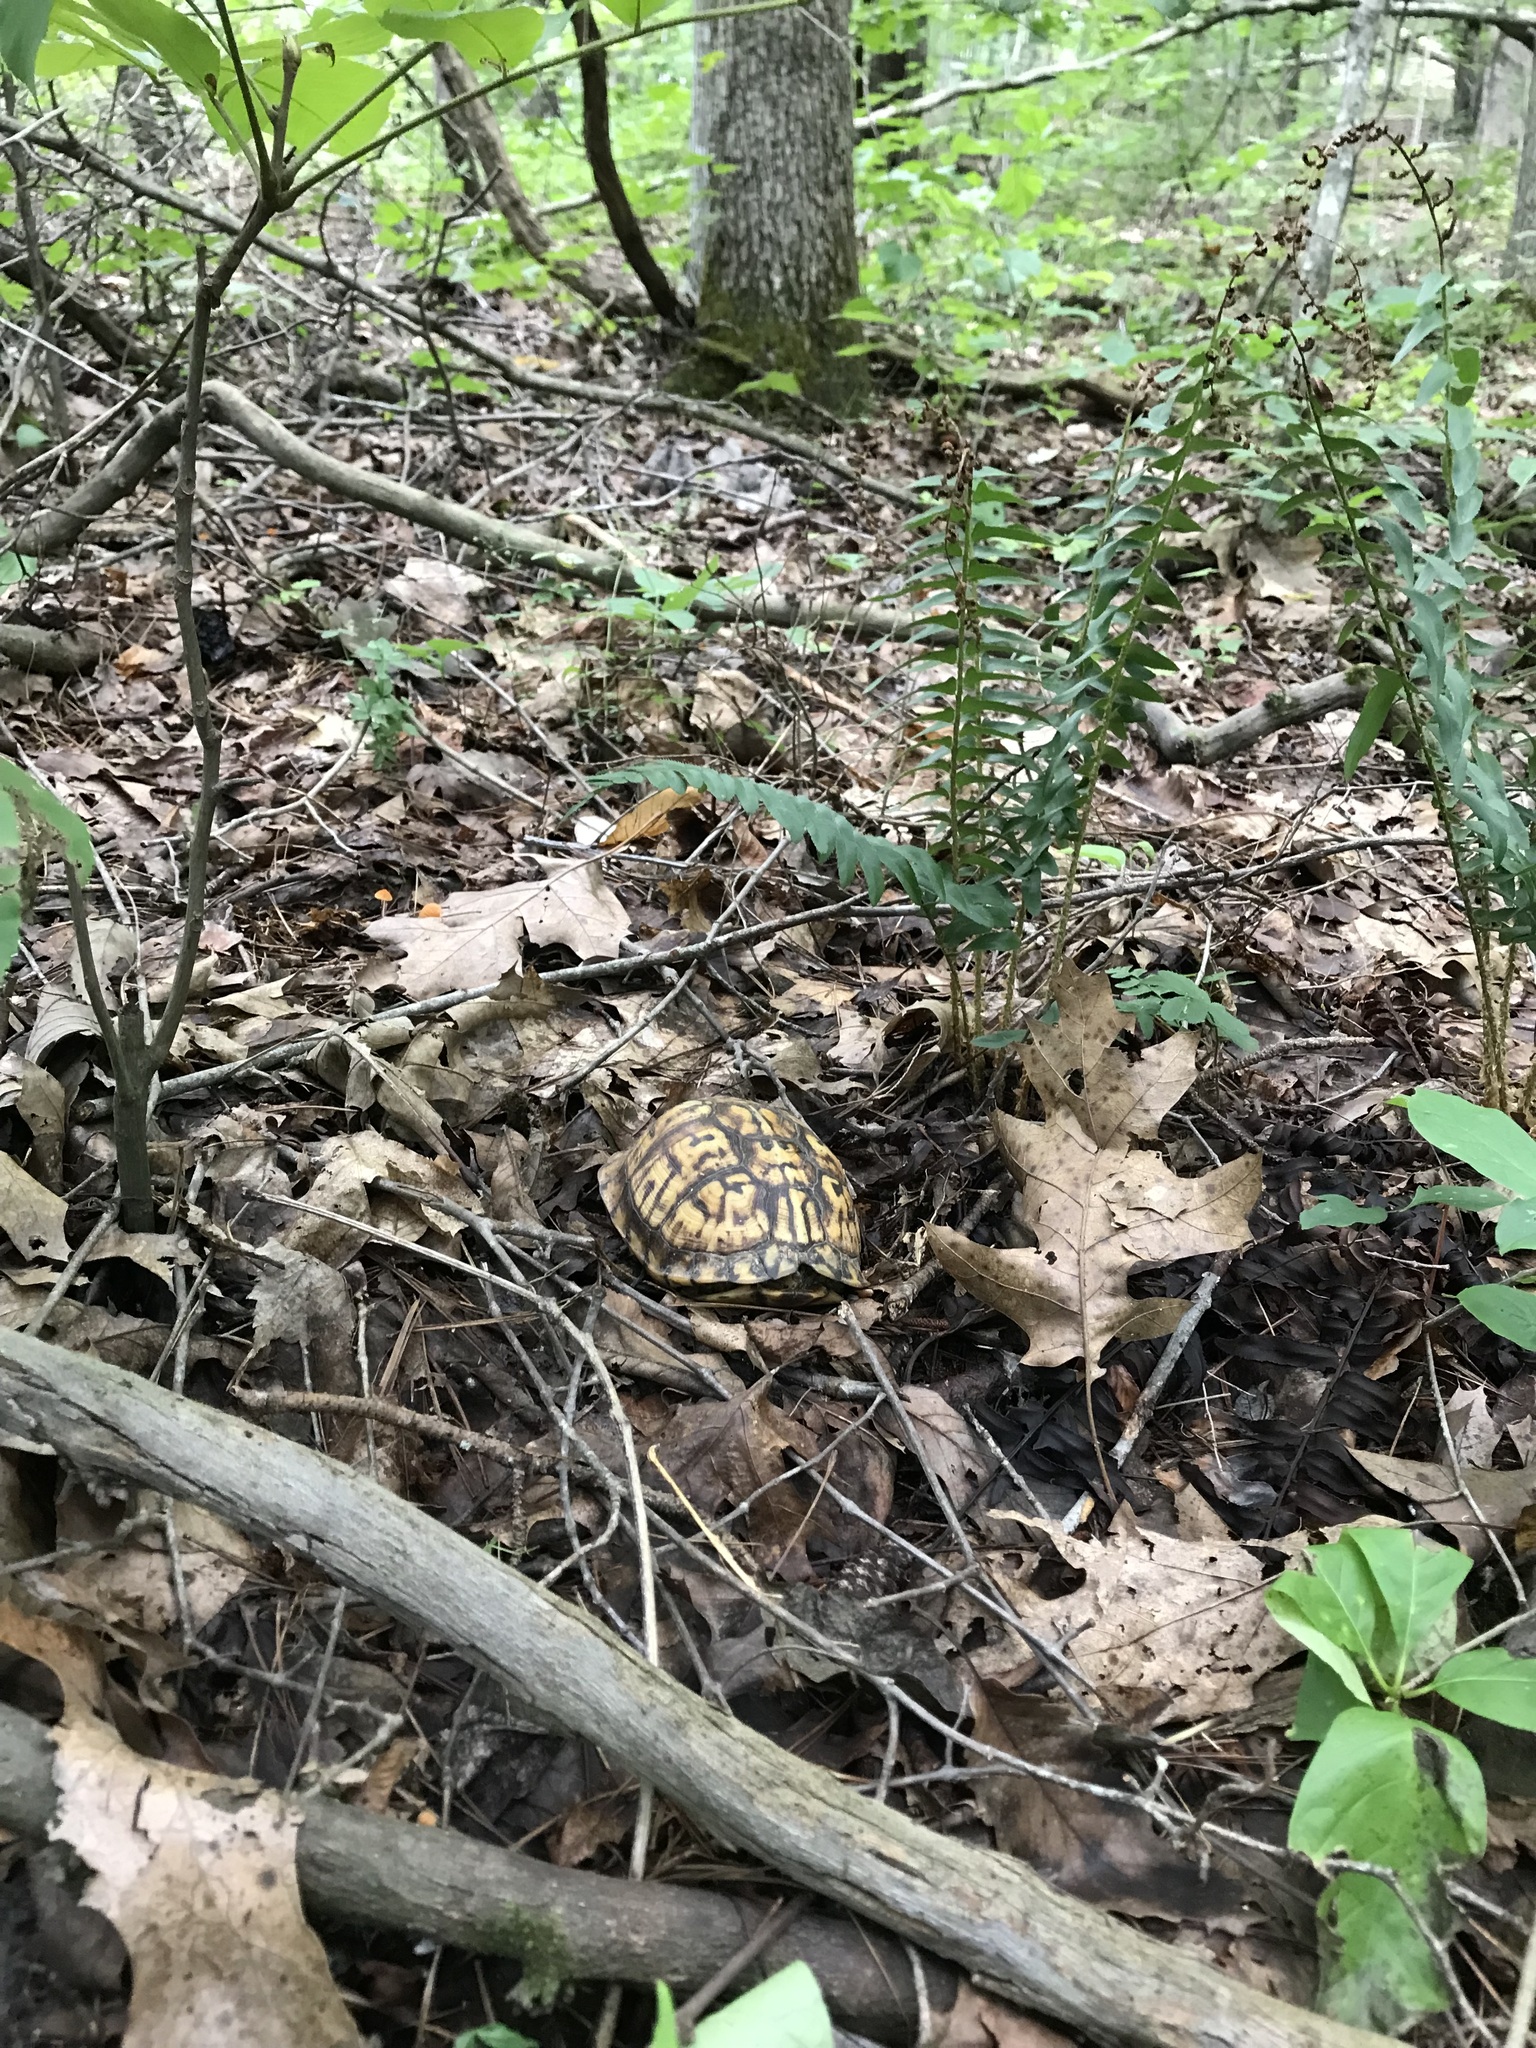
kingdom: Animalia
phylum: Chordata
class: Testudines
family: Emydidae
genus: Terrapene
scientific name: Terrapene carolina
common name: Common box turtle
